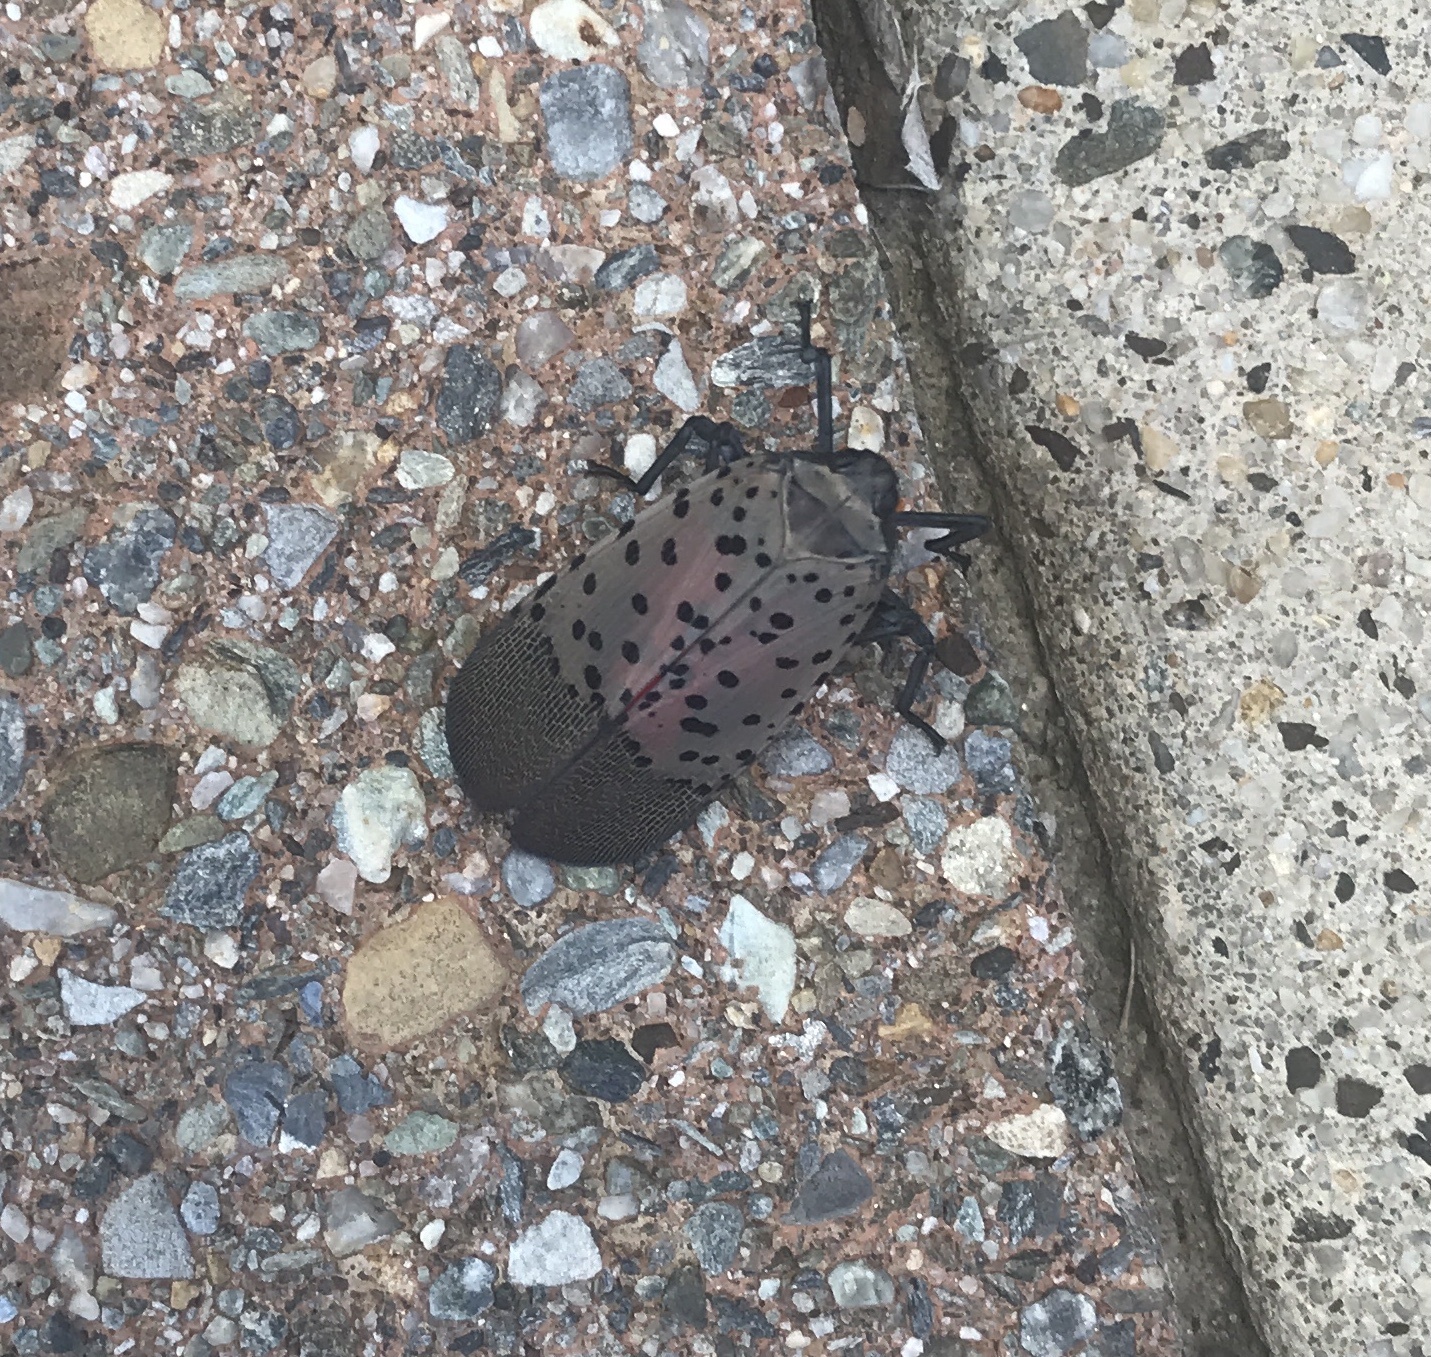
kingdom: Animalia
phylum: Arthropoda
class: Insecta
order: Hemiptera
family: Fulgoridae
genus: Lycorma
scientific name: Lycorma delicatula
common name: Spotted lanternfly
